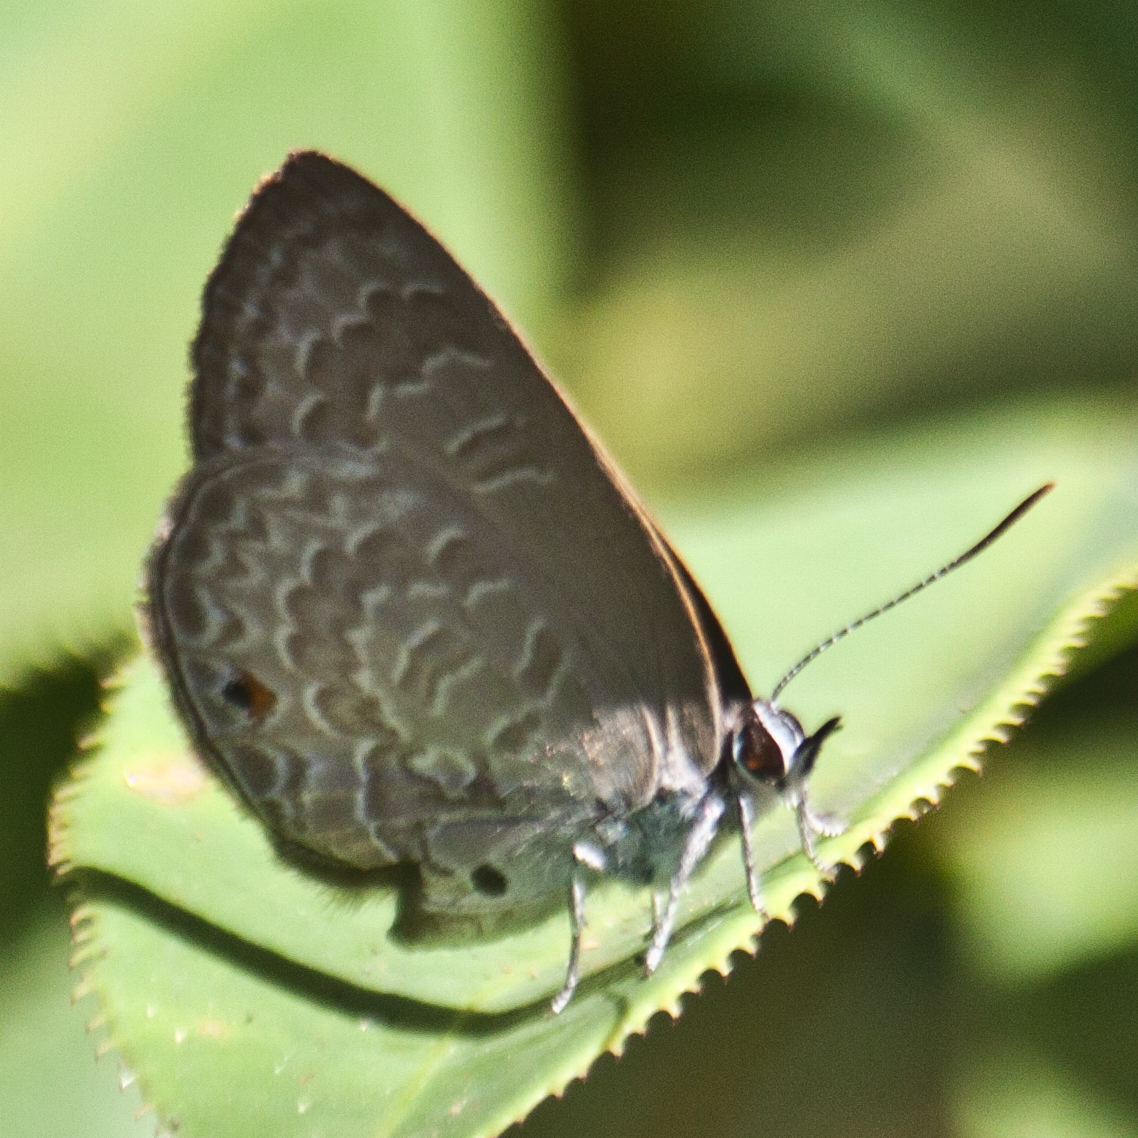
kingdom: Animalia
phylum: Arthropoda
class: Insecta
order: Lepidoptera
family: Lycaenidae
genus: Anthene
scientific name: Anthene emolus
